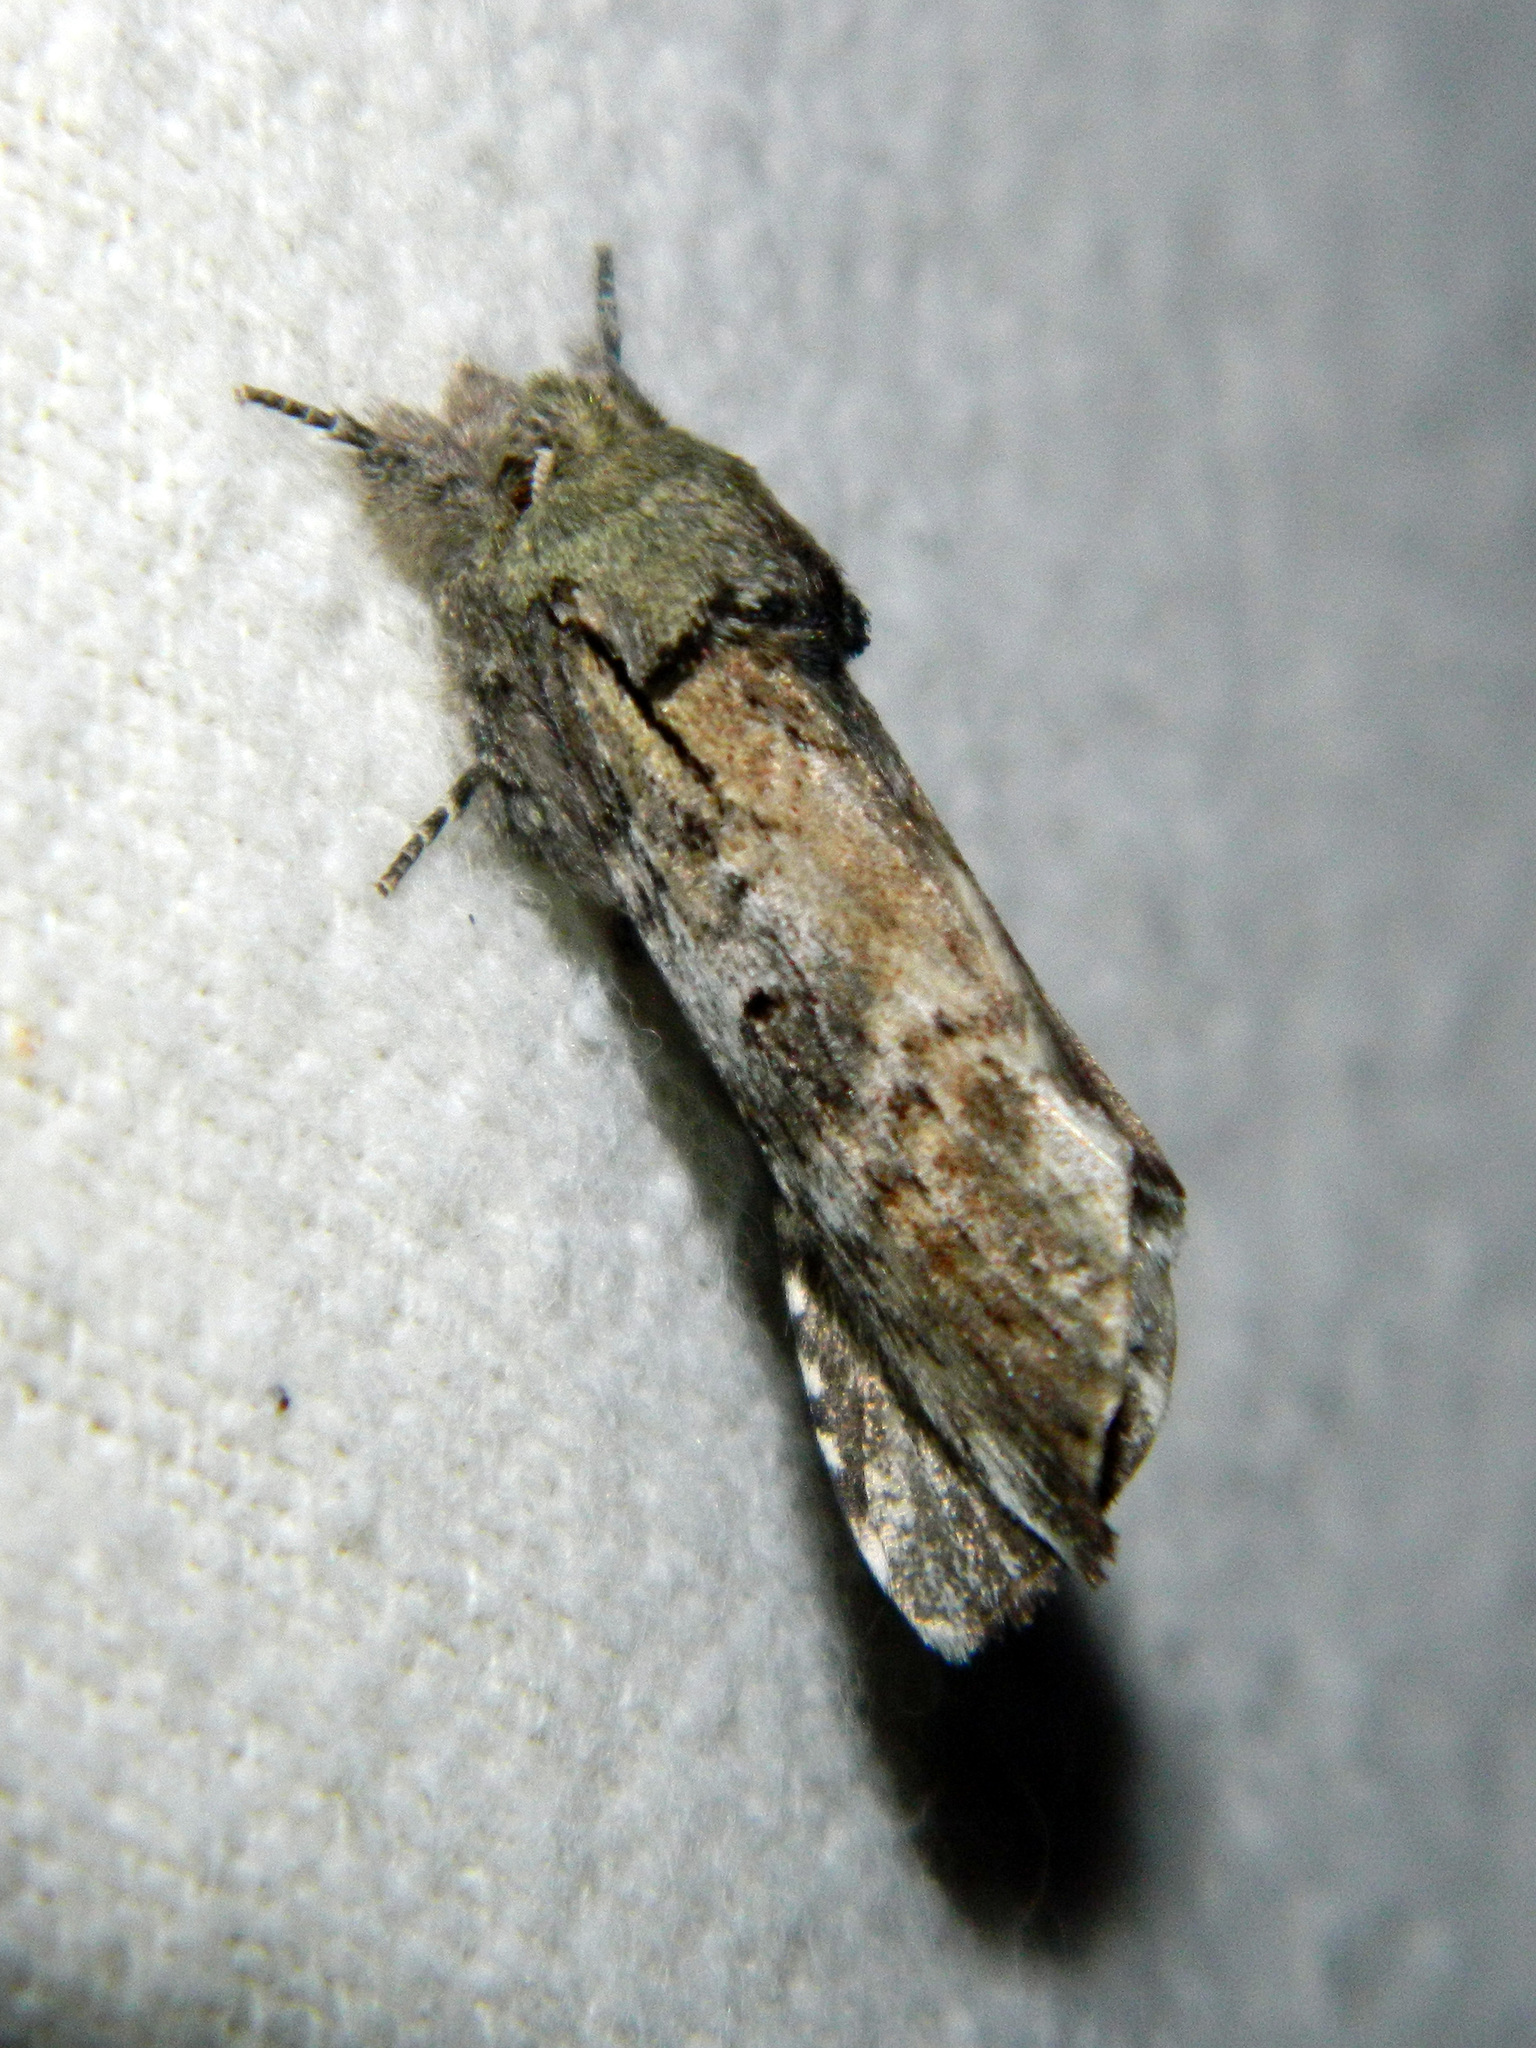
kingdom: Animalia
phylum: Arthropoda
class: Insecta
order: Lepidoptera
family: Notodontidae
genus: Schizura
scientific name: Schizura
